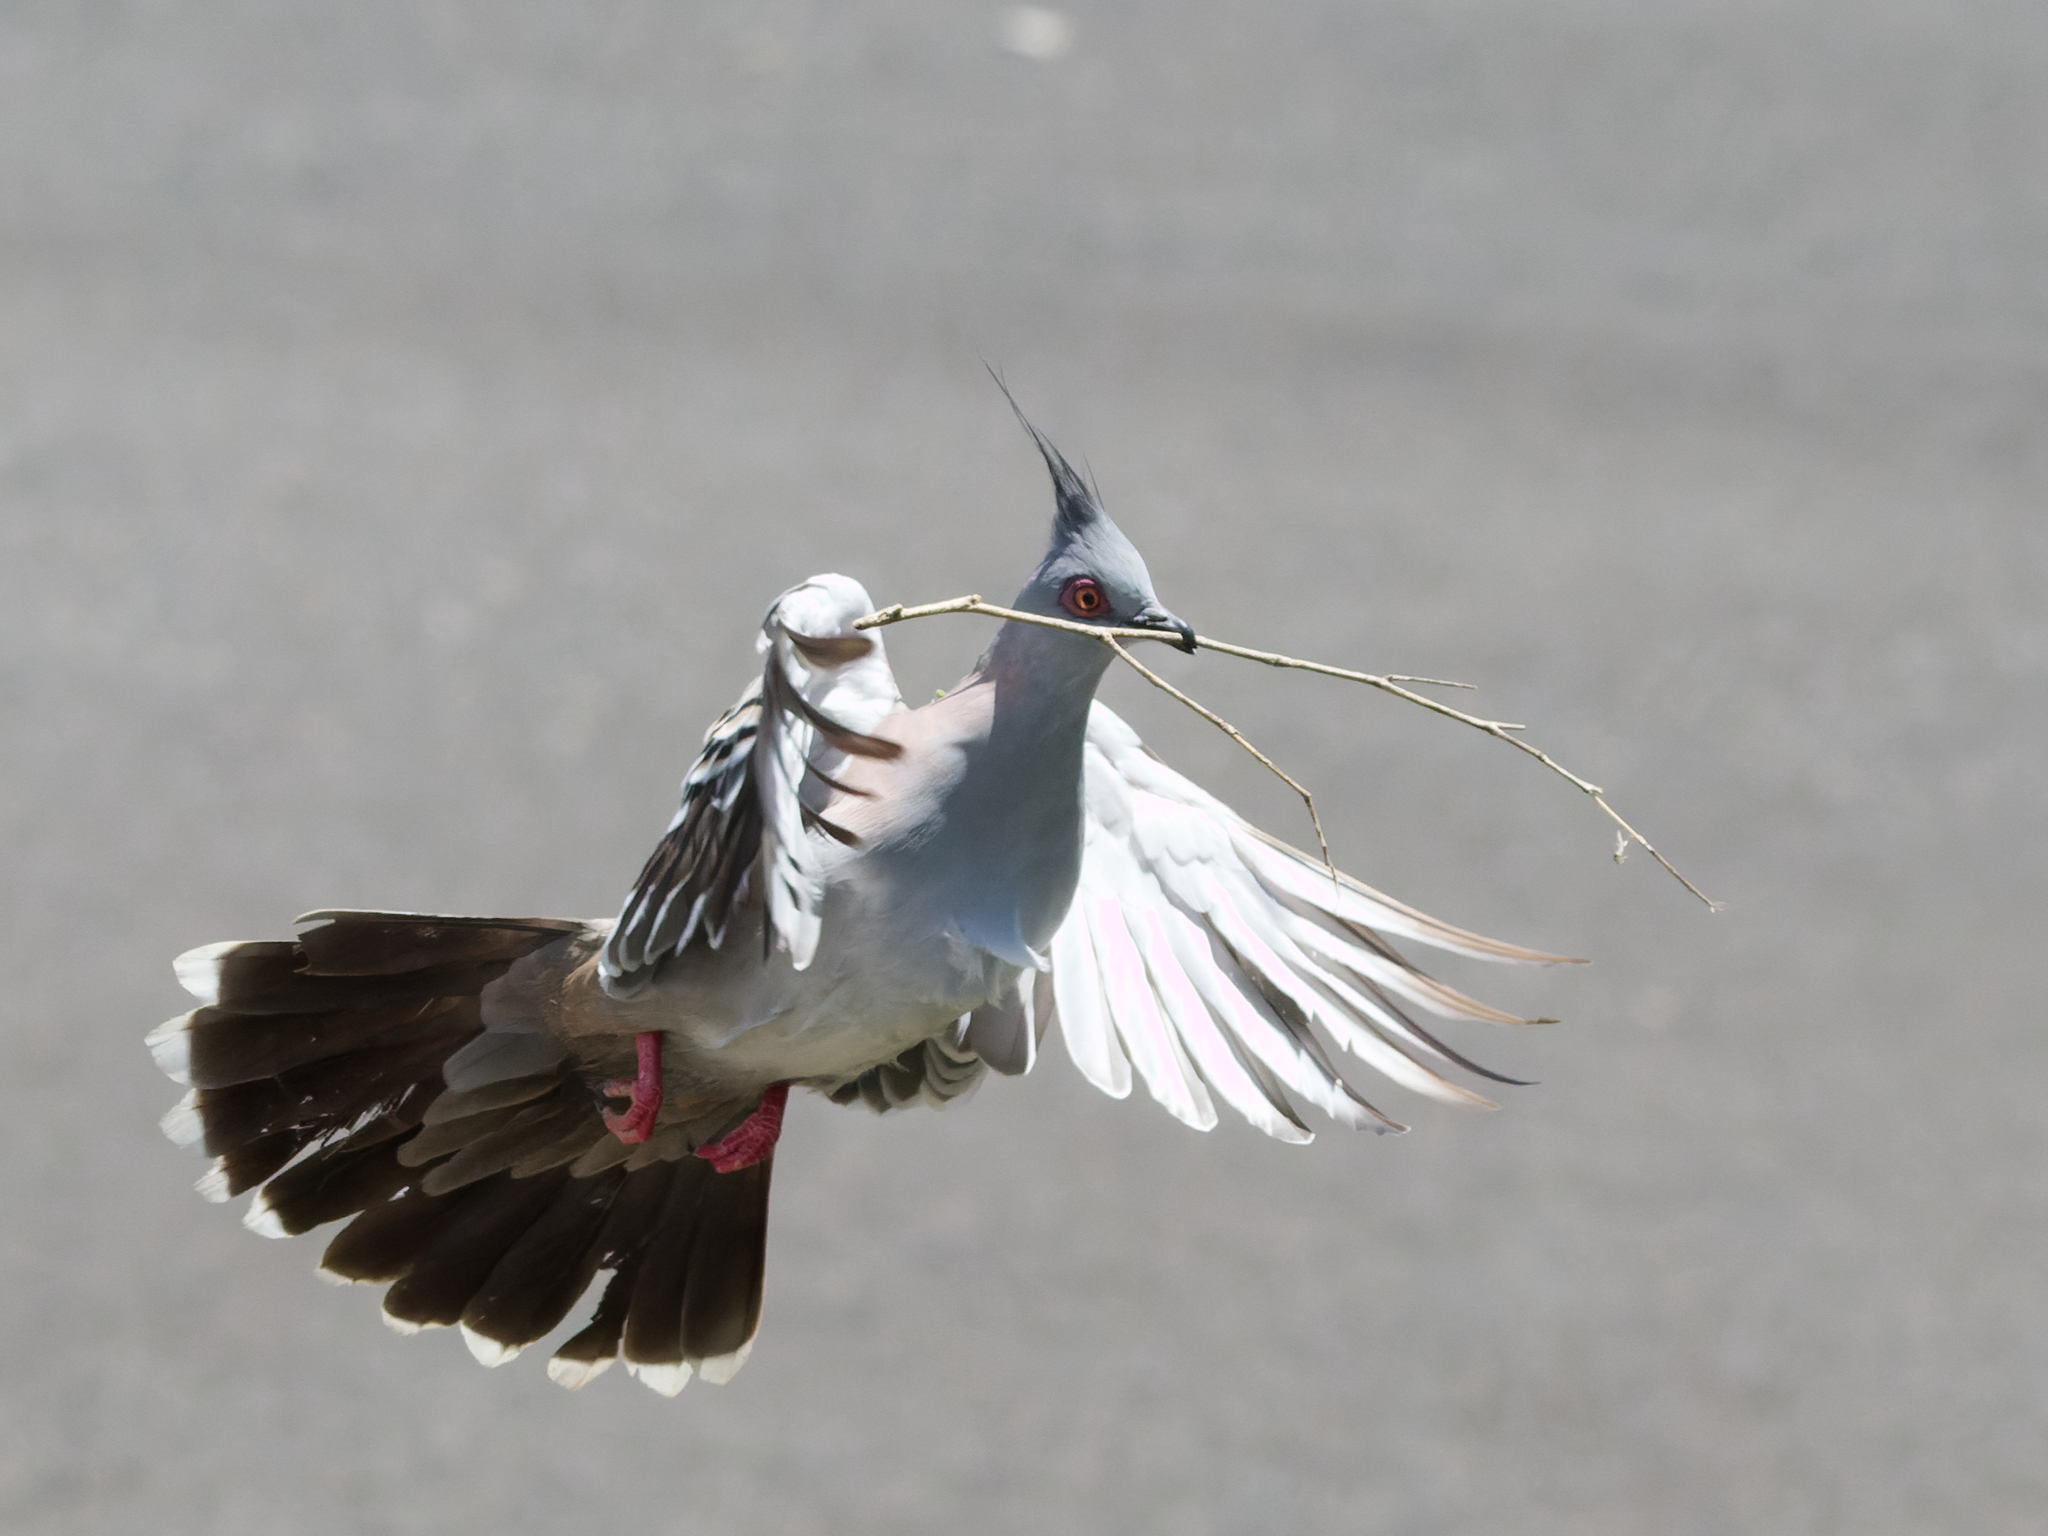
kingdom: Animalia
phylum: Chordata
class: Aves
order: Columbiformes
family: Columbidae
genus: Ocyphaps
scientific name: Ocyphaps lophotes
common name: Crested pigeon
